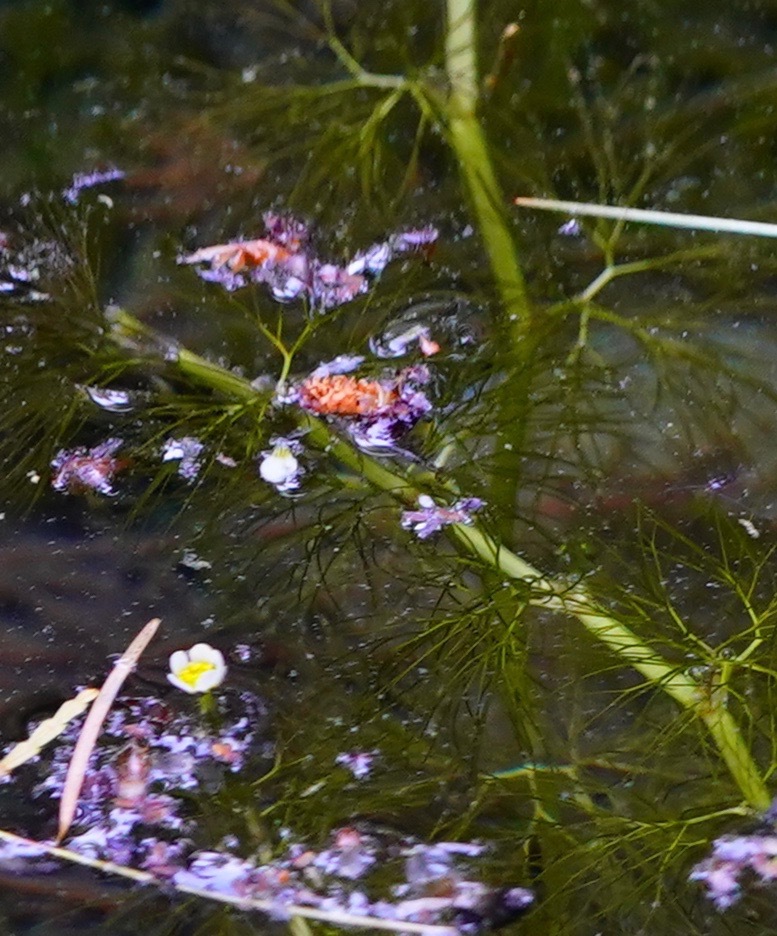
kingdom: Plantae
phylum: Tracheophyta
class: Magnoliopsida
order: Ranunculales
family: Ranunculaceae
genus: Ranunculus
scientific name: Ranunculus aquatilis
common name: Common water-crowfoot
